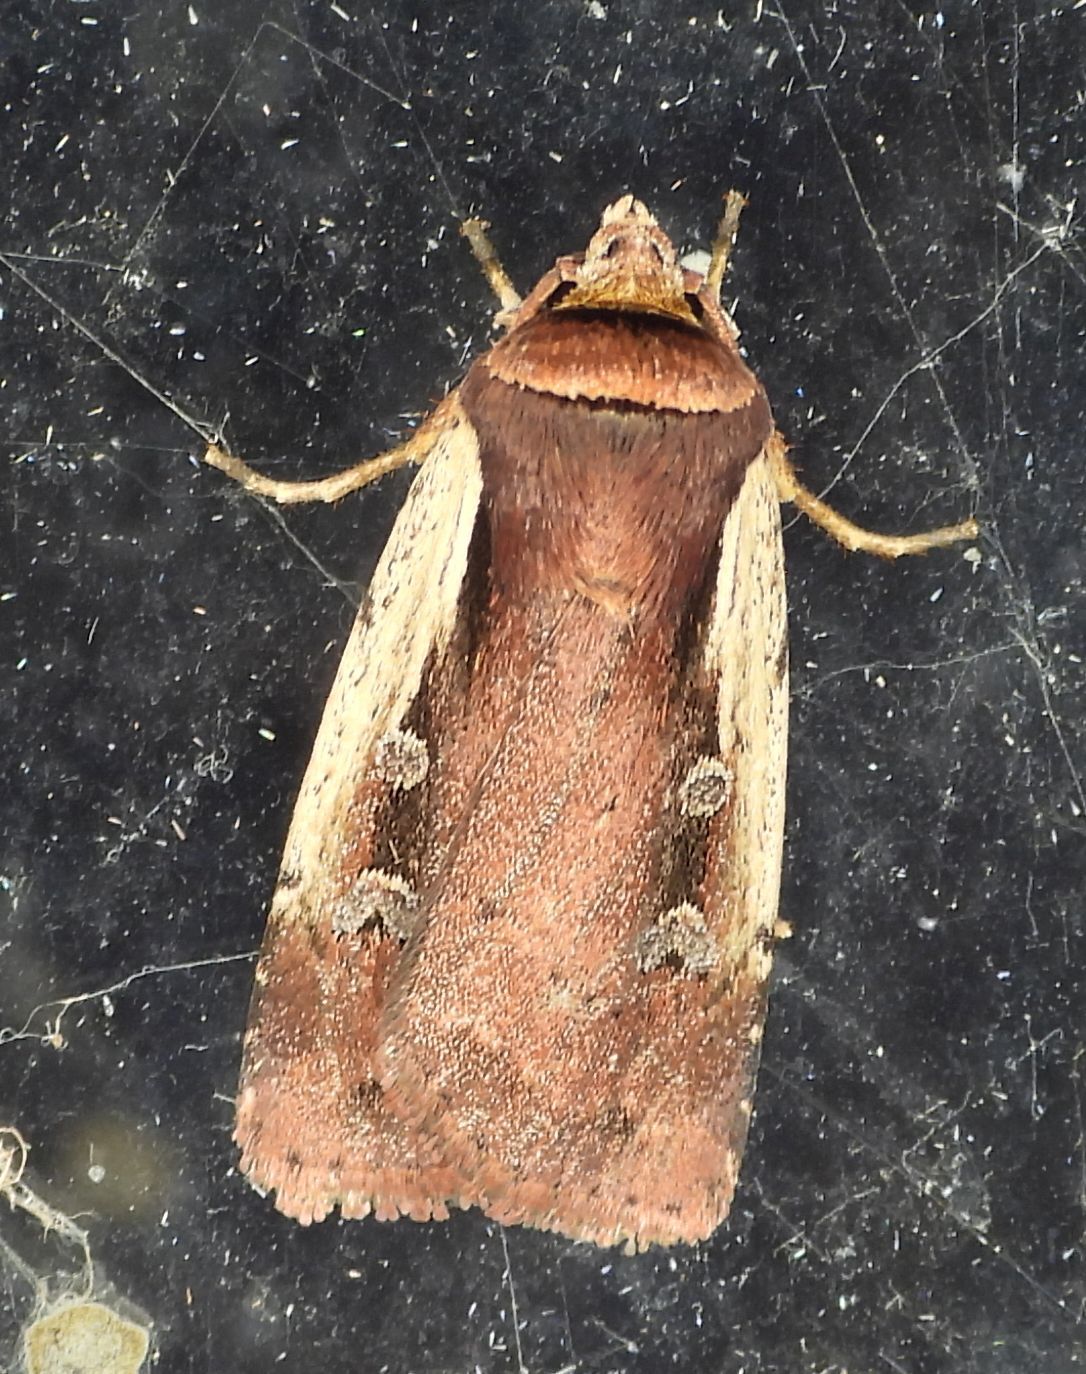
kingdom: Animalia
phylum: Arthropoda
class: Insecta
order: Lepidoptera
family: Noctuidae
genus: Ochropleura
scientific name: Ochropleura implecta
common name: Flame-shouldered dart
